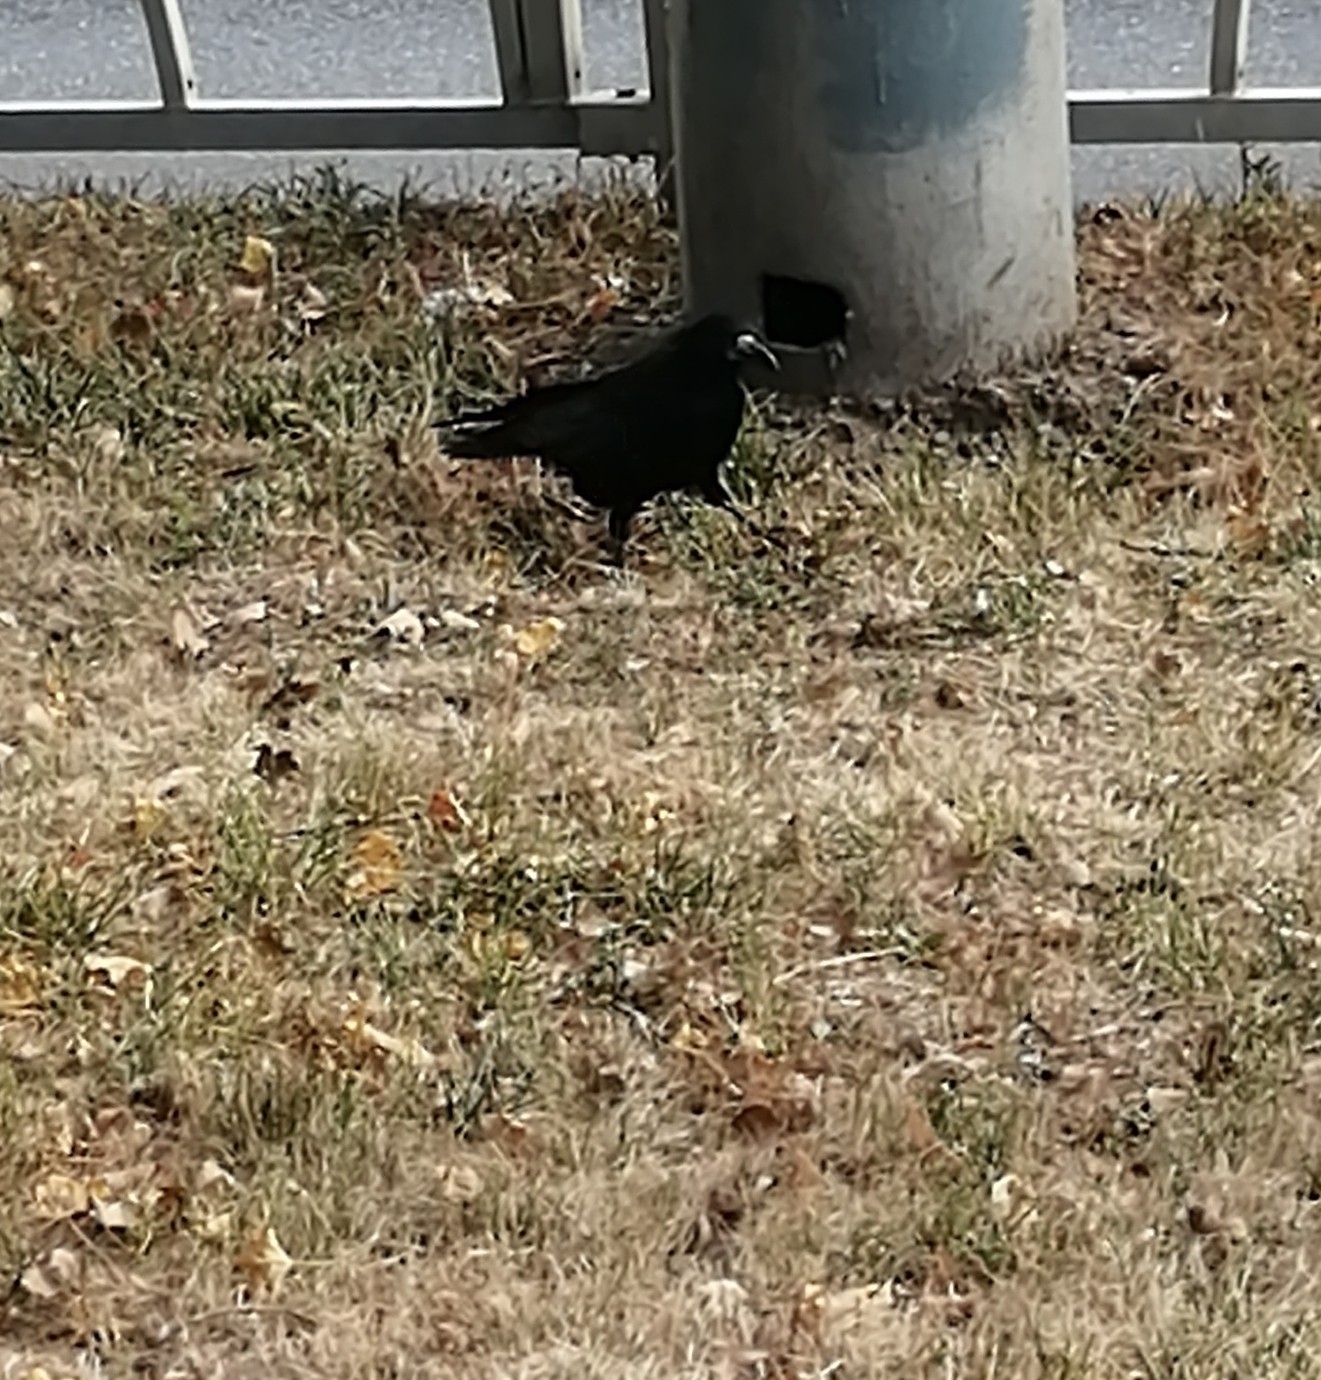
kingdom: Animalia
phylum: Chordata
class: Aves
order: Passeriformes
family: Corvidae
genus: Corvus
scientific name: Corvus frugilegus
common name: Rook
